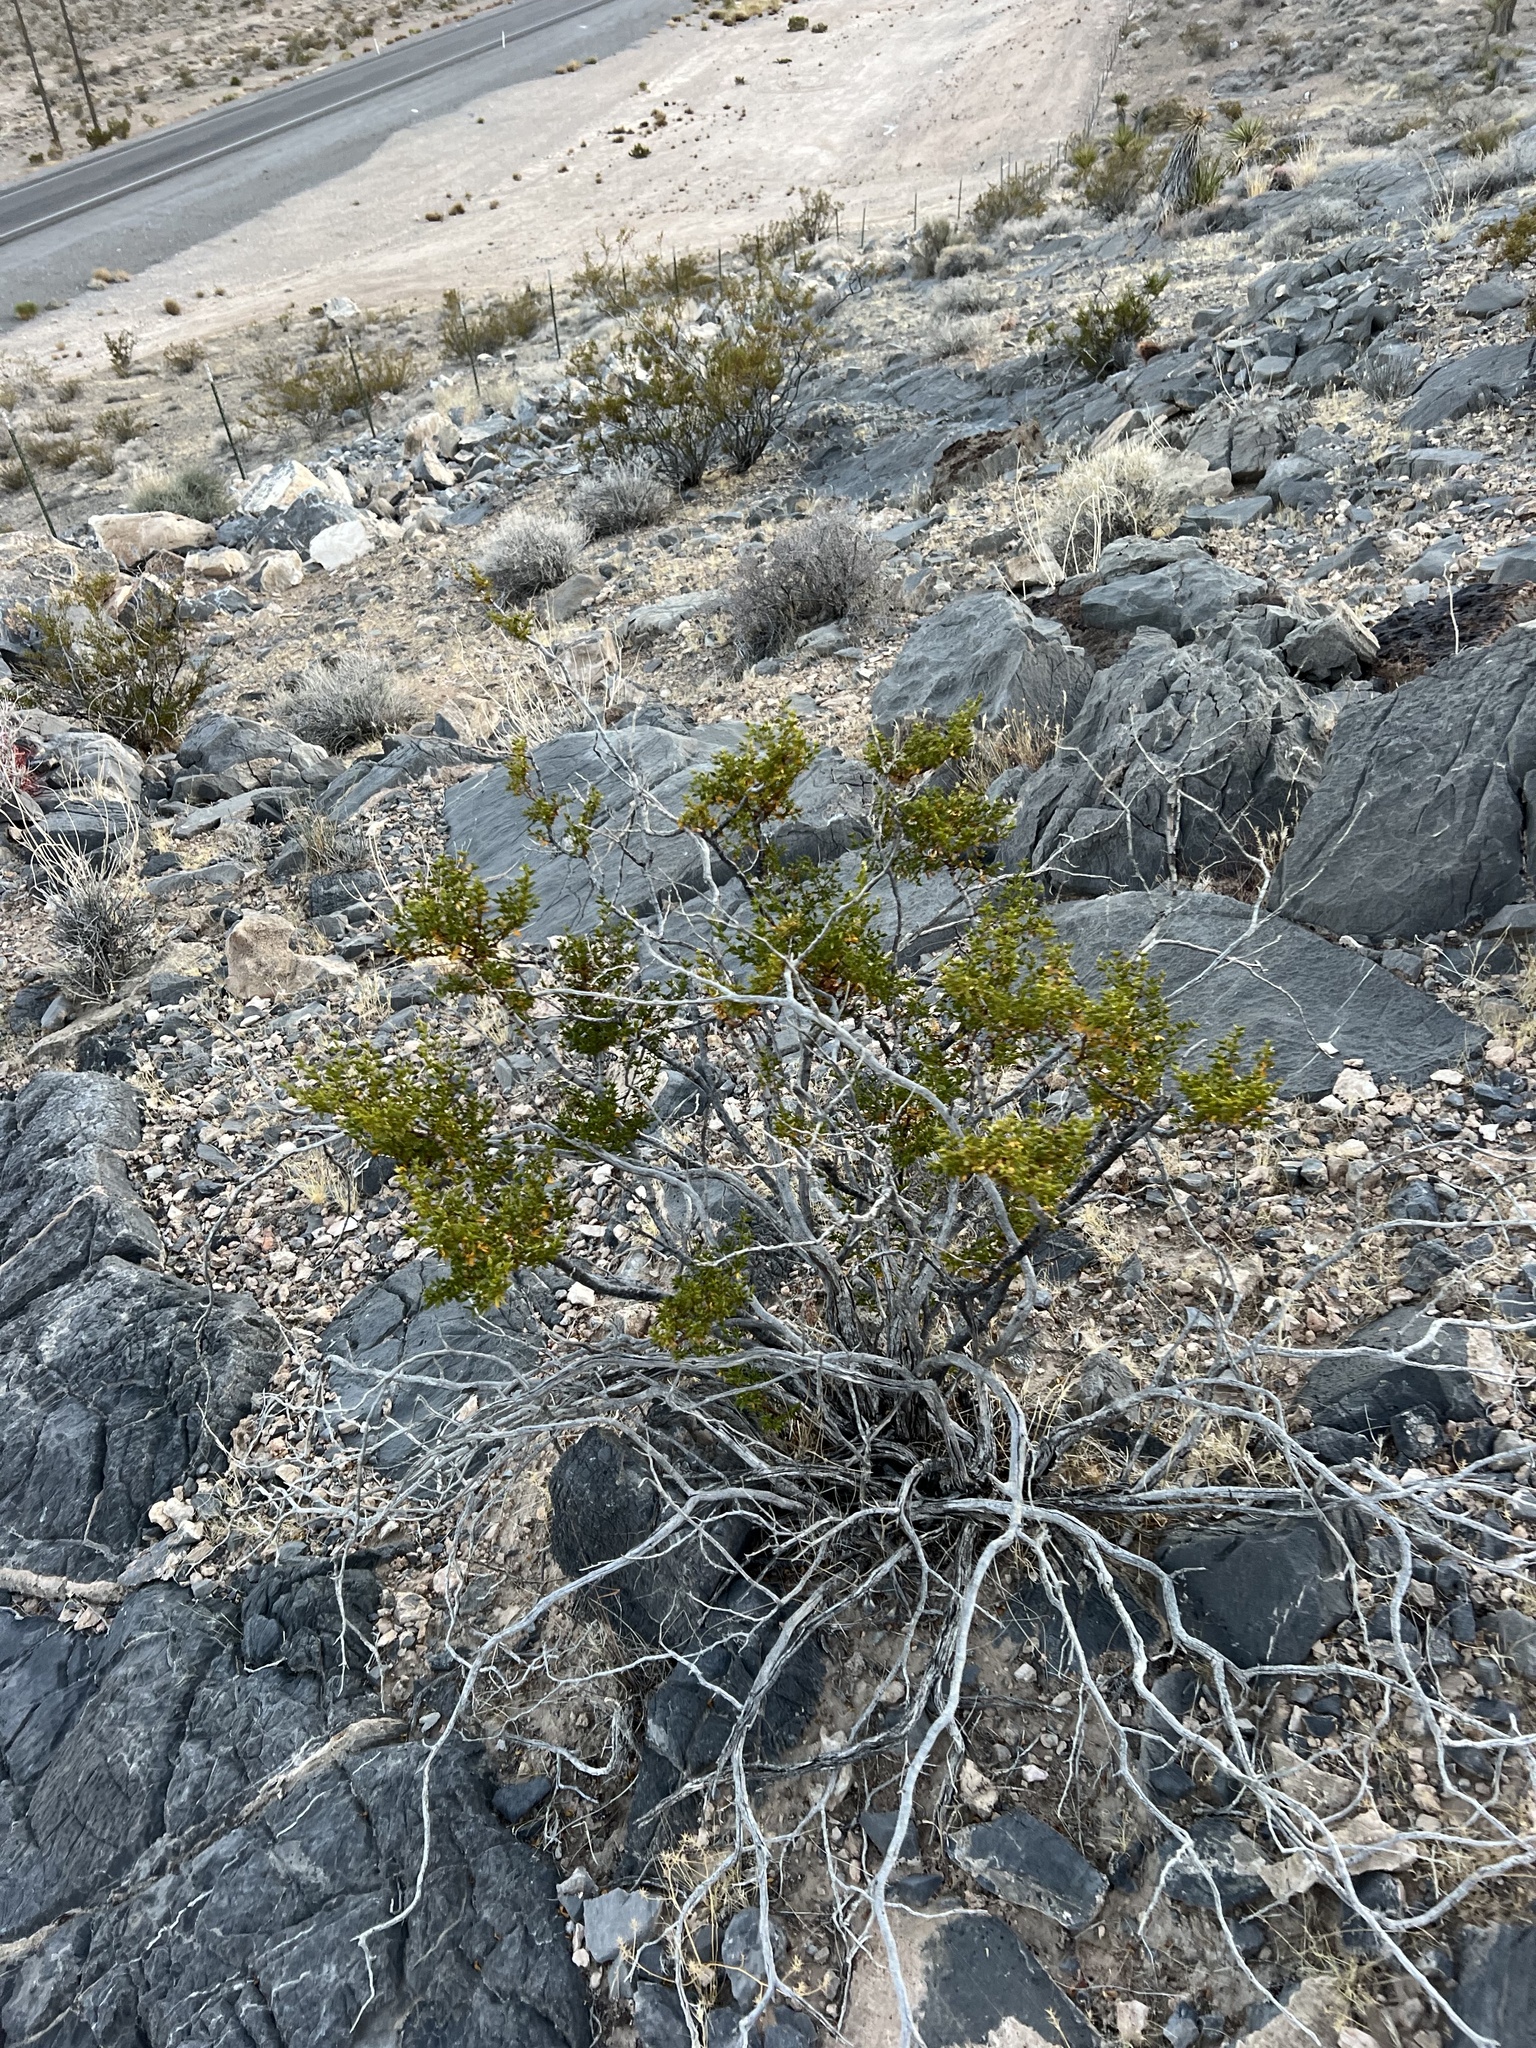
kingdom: Plantae
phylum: Tracheophyta
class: Magnoliopsida
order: Zygophyllales
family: Zygophyllaceae
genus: Larrea
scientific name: Larrea tridentata
